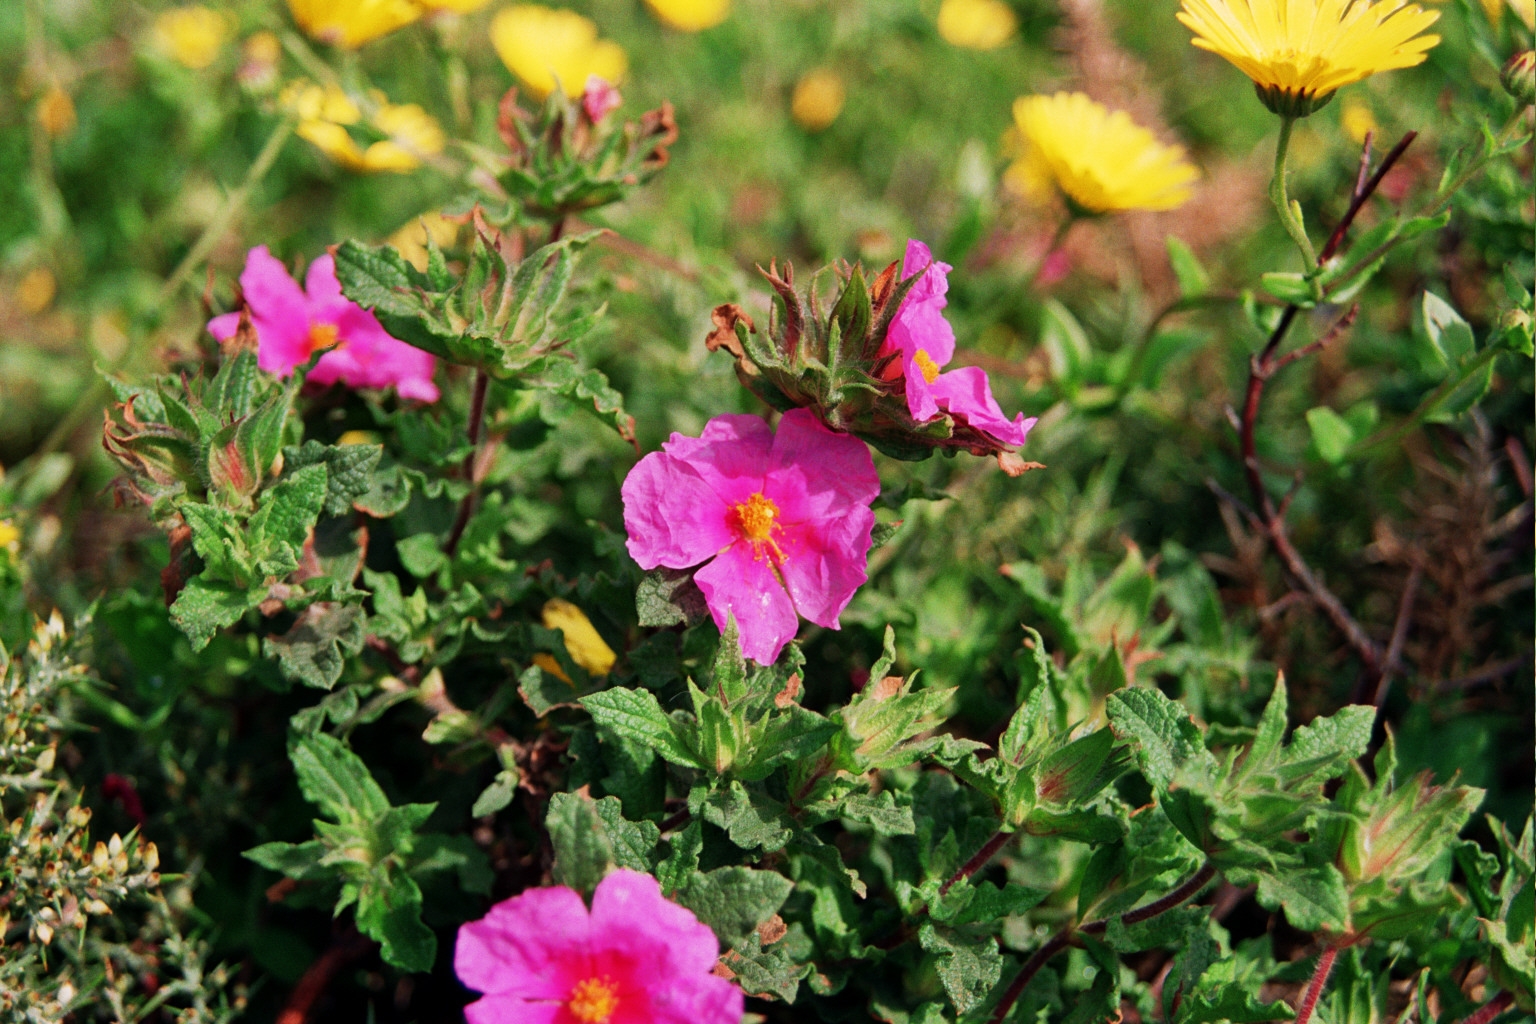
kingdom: Plantae
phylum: Tracheophyta
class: Magnoliopsida
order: Malvales
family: Cistaceae
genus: Cistus
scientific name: Cistus crispus
